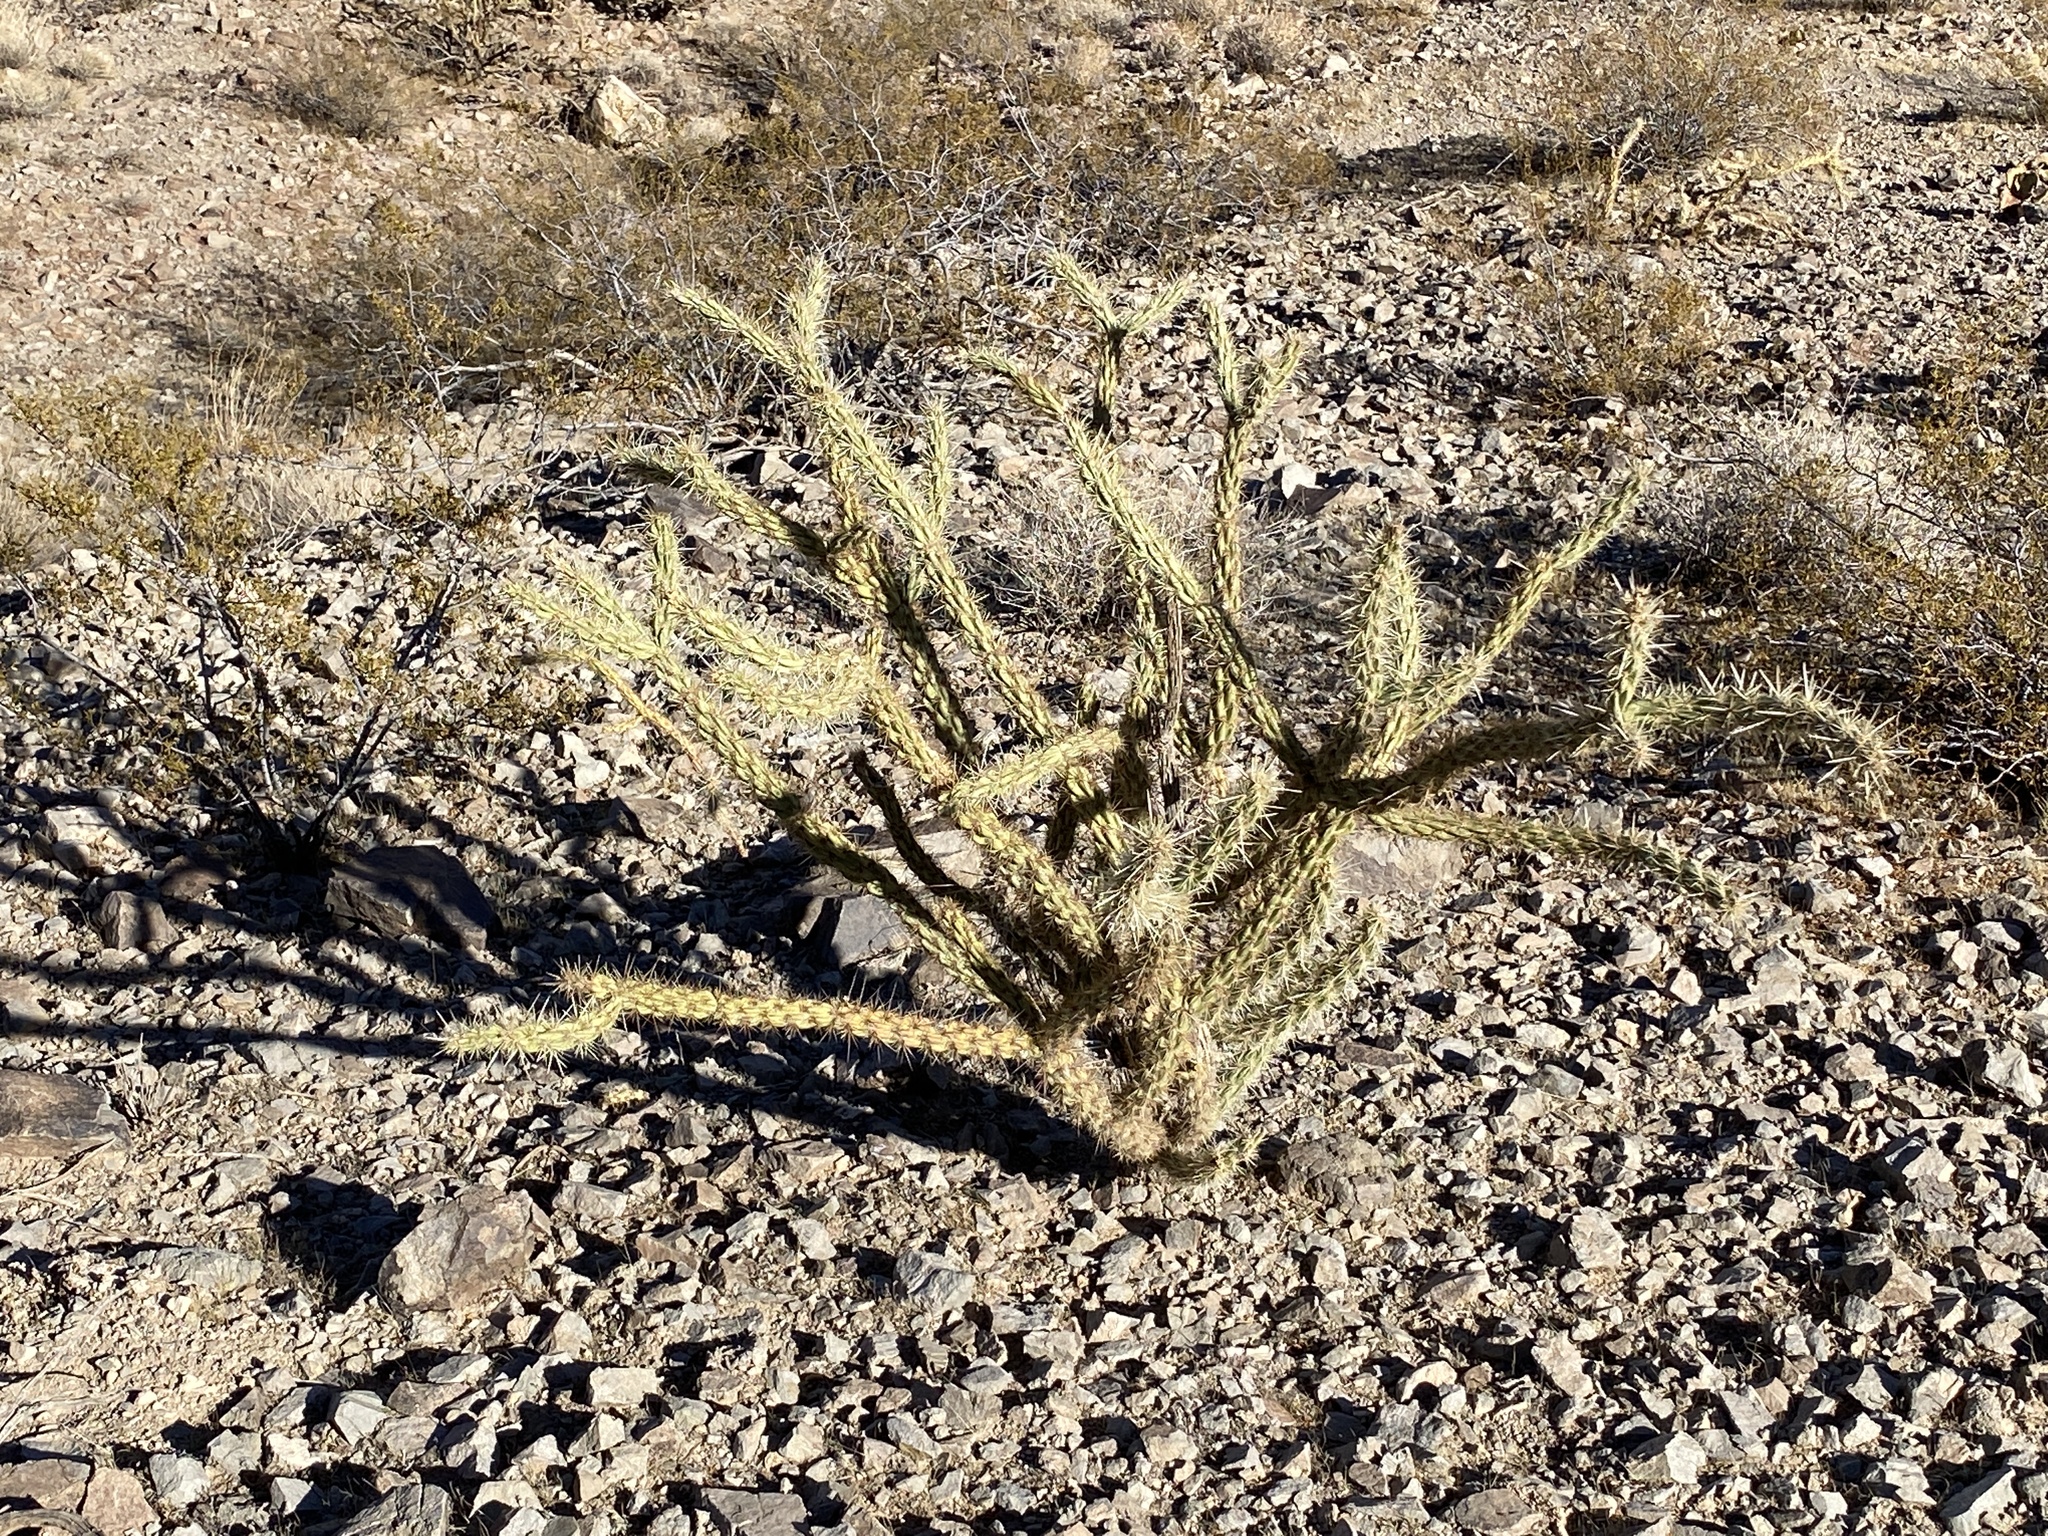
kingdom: Plantae
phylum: Tracheophyta
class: Magnoliopsida
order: Caryophyllales
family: Cactaceae
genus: Cylindropuntia
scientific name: Cylindropuntia acanthocarpa
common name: Buckhorn cholla
